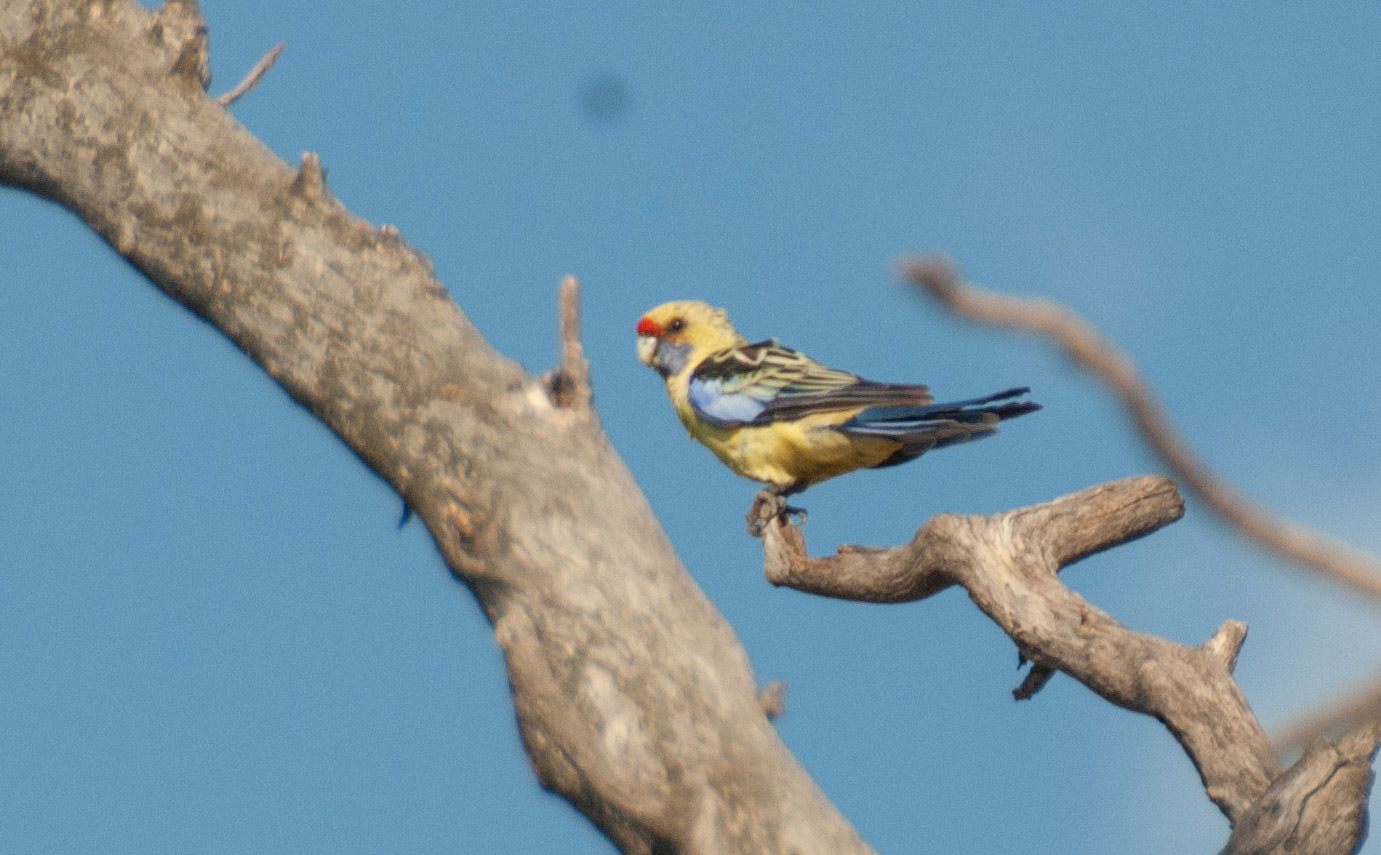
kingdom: Animalia
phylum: Chordata
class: Aves
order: Psittaciformes
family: Psittacidae
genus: Platycercus
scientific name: Platycercus elegans
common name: Crimson rosella
